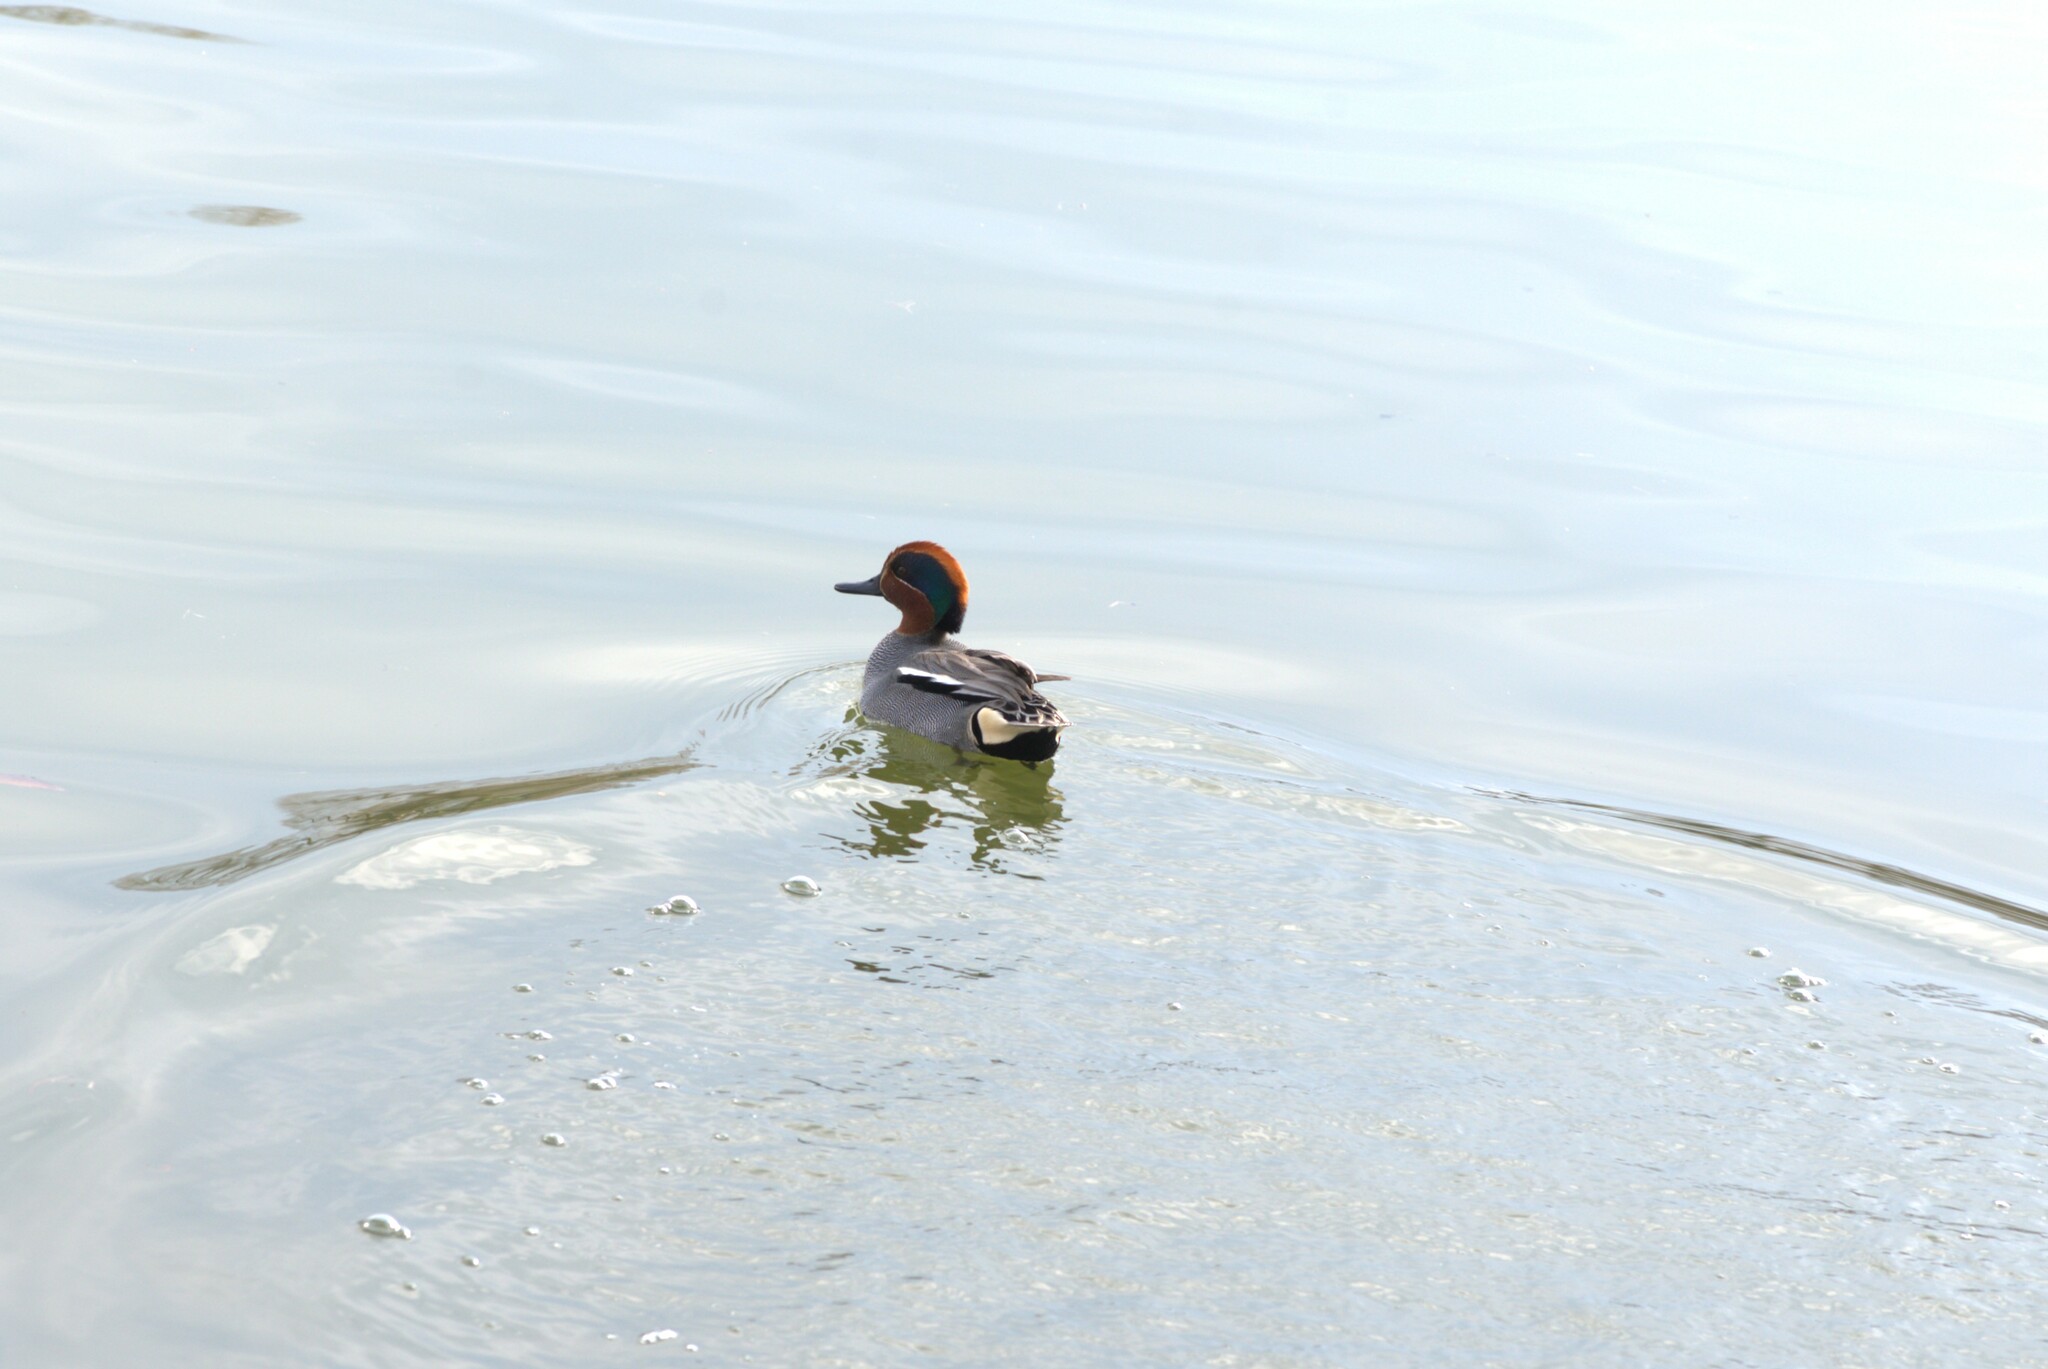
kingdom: Animalia
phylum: Chordata
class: Aves
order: Anseriformes
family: Anatidae
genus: Anas
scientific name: Anas crecca
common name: Eurasian teal
